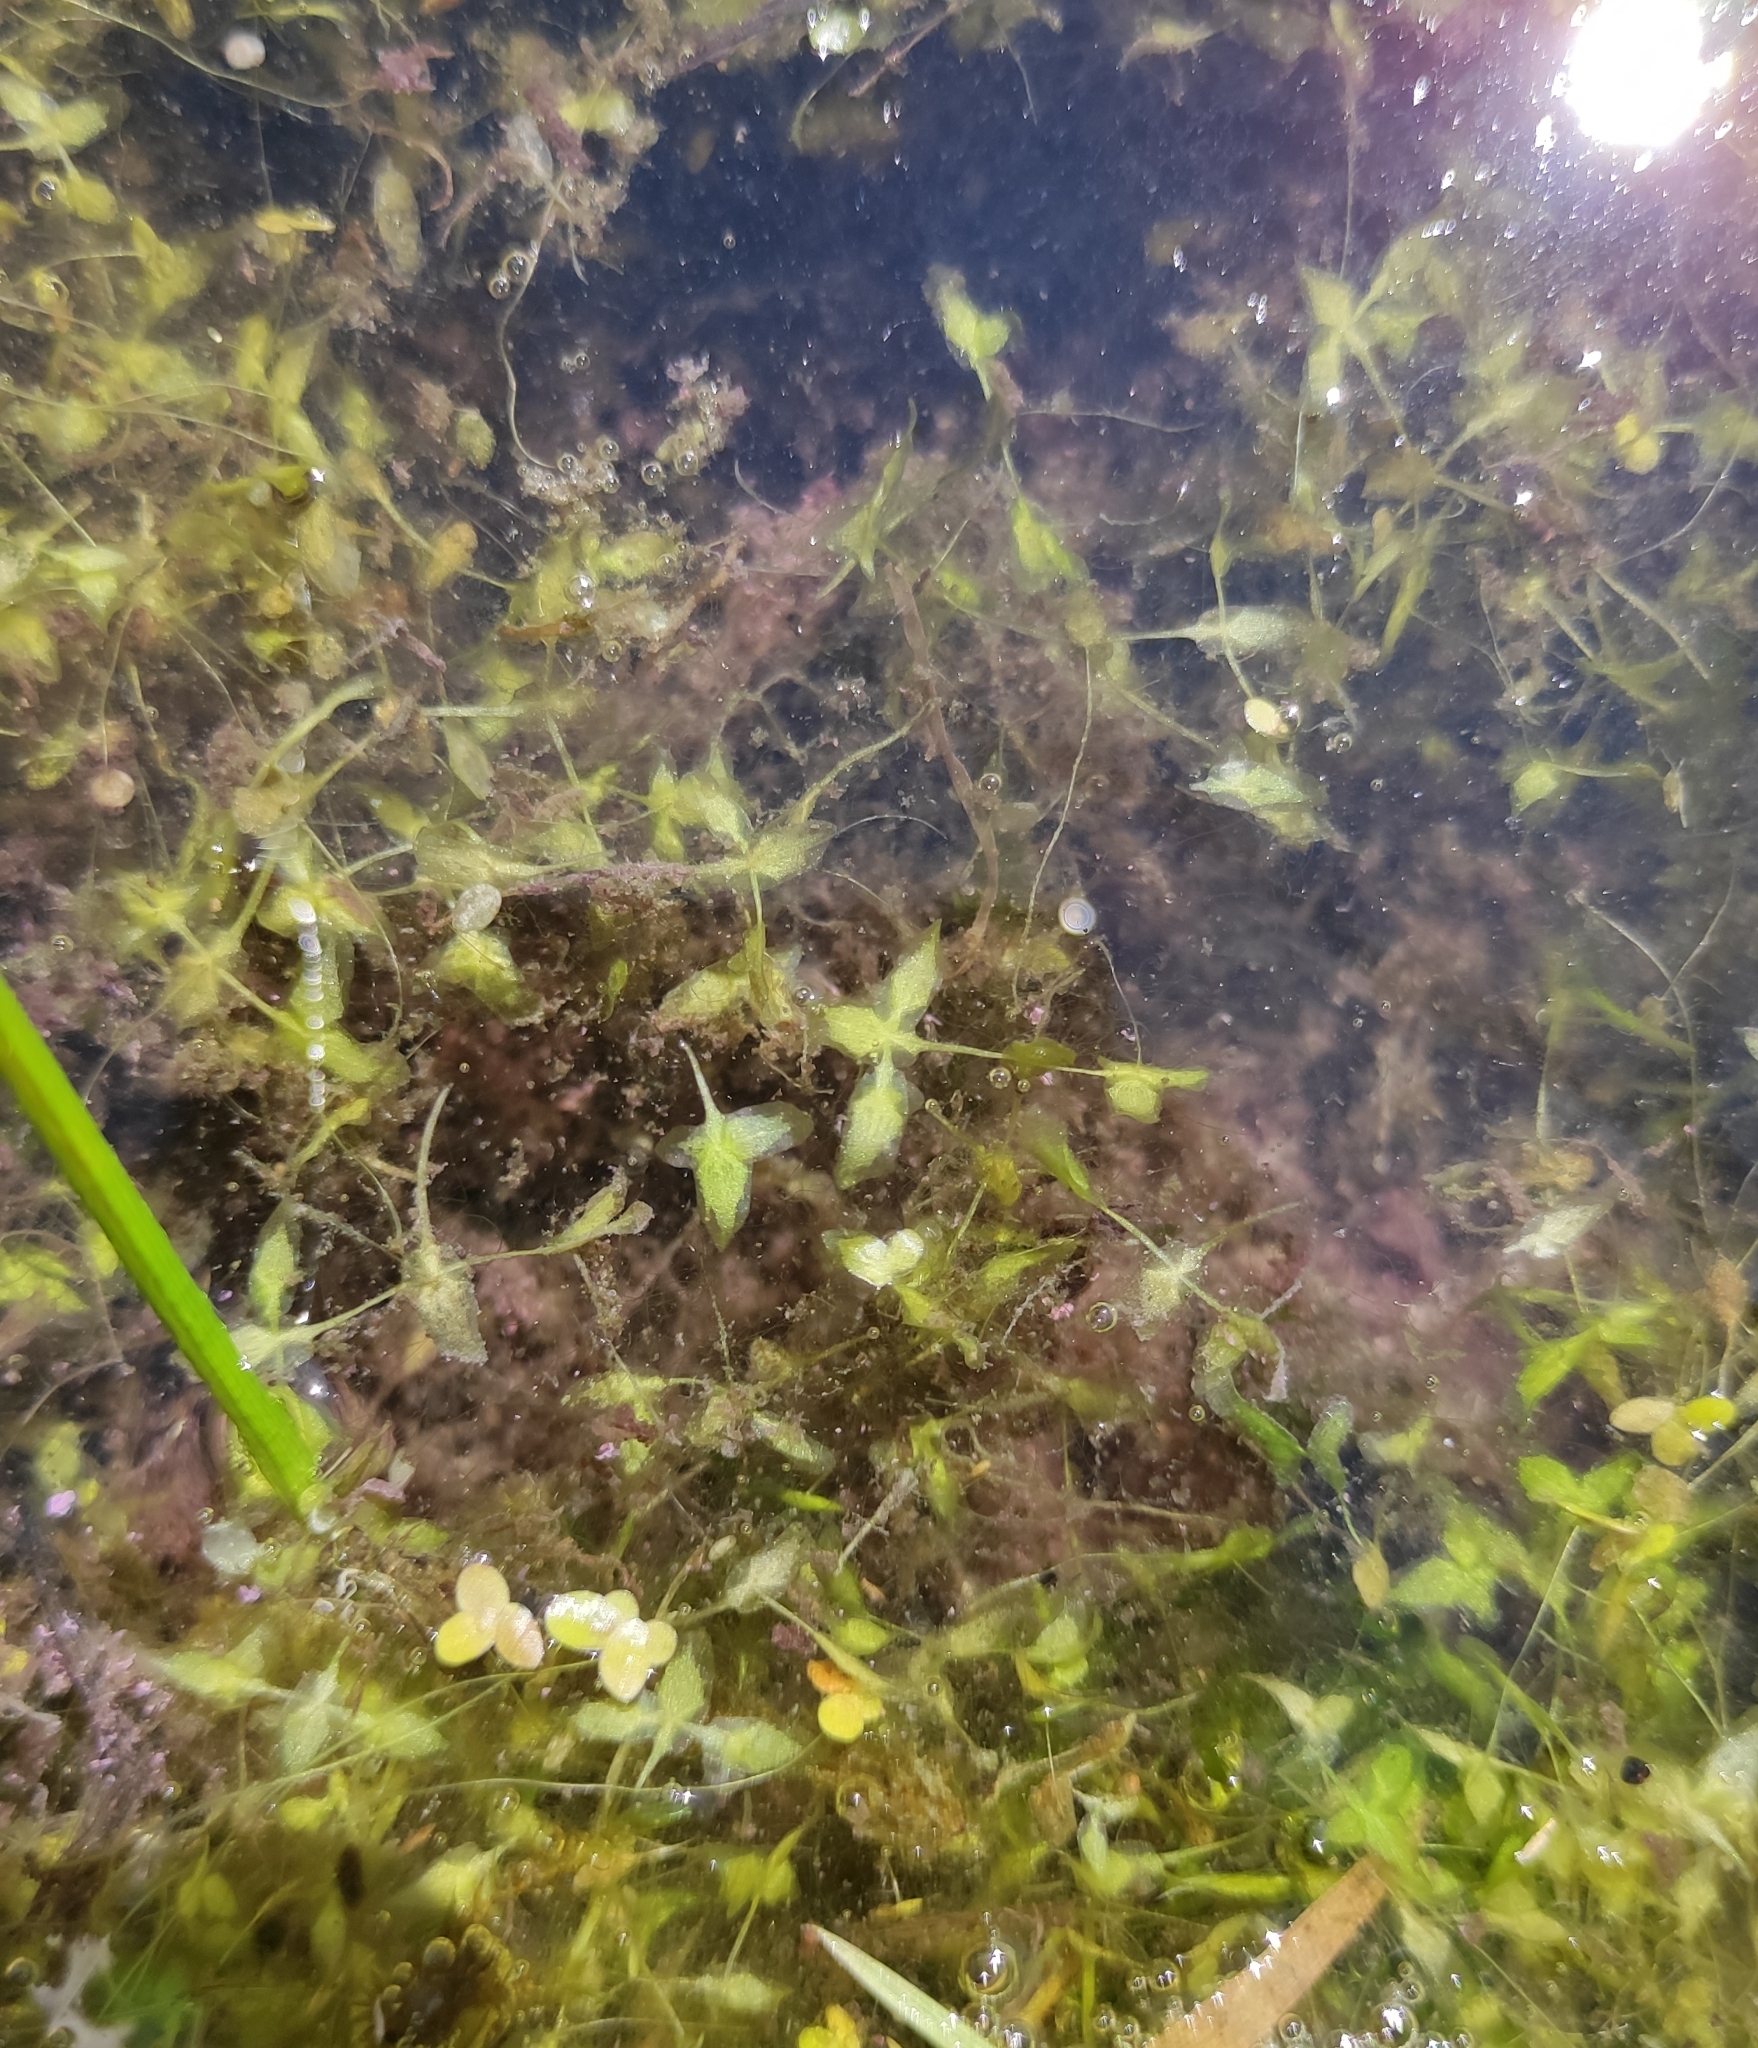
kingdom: Plantae
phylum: Tracheophyta
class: Liliopsida
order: Alismatales
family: Araceae
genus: Lemna
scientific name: Lemna trisulca
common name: Ivy-leaved duckweed
